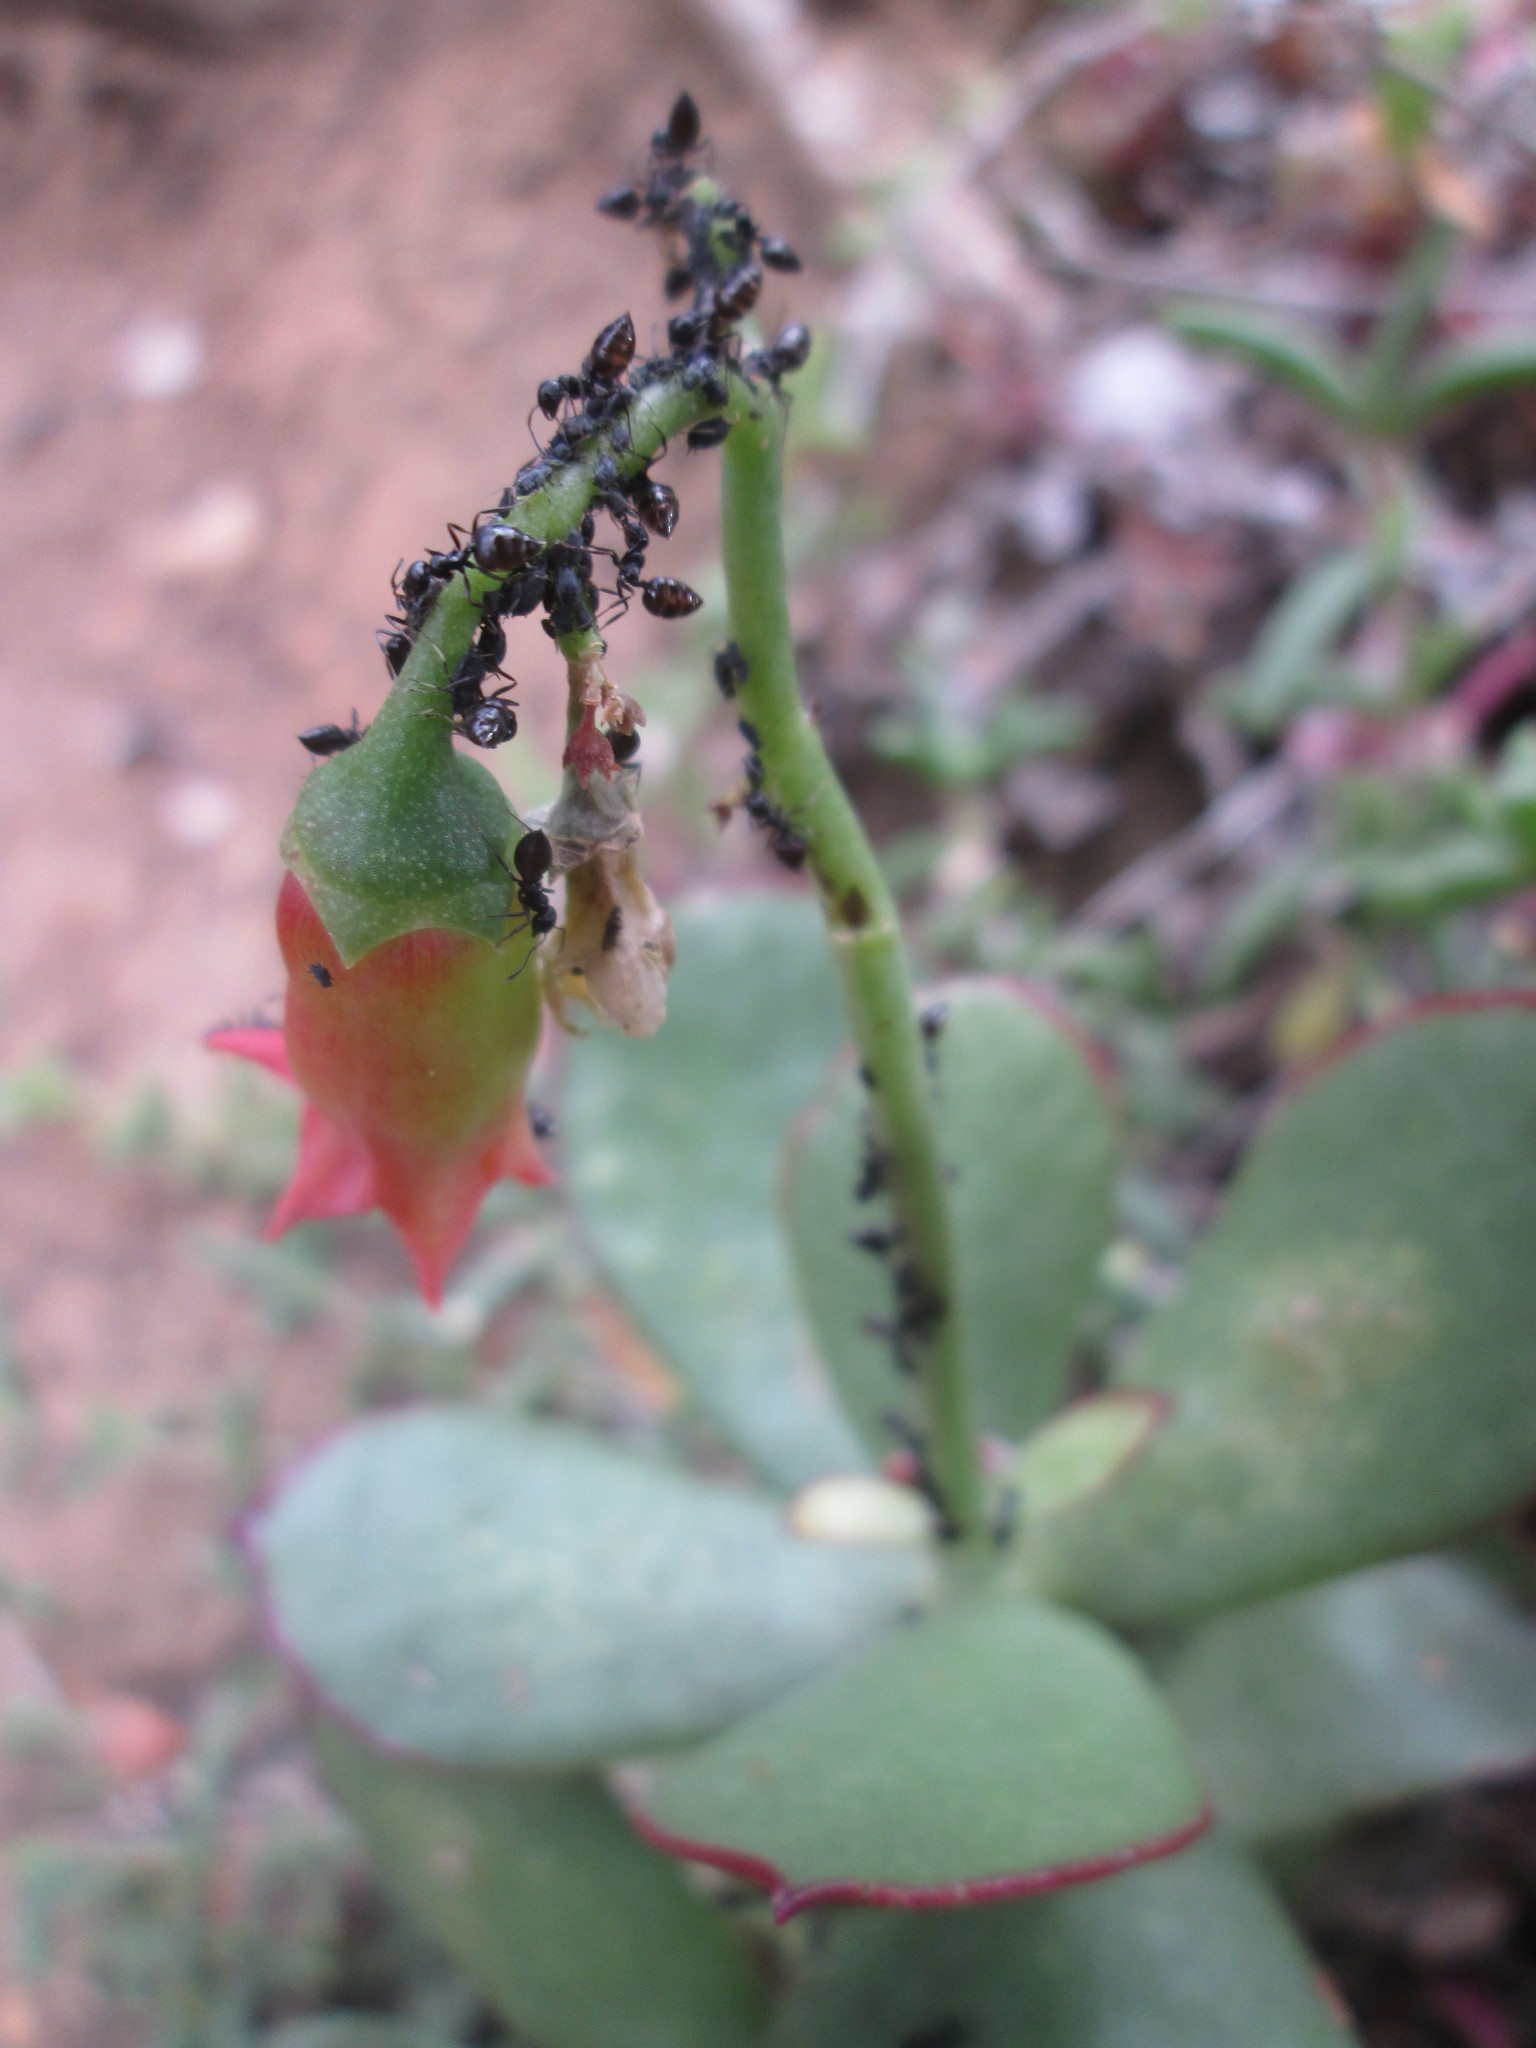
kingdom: Plantae
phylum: Tracheophyta
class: Magnoliopsida
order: Saxifragales
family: Crassulaceae
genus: Cotyledon
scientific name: Cotyledon orbiculata
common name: Pig's ear
